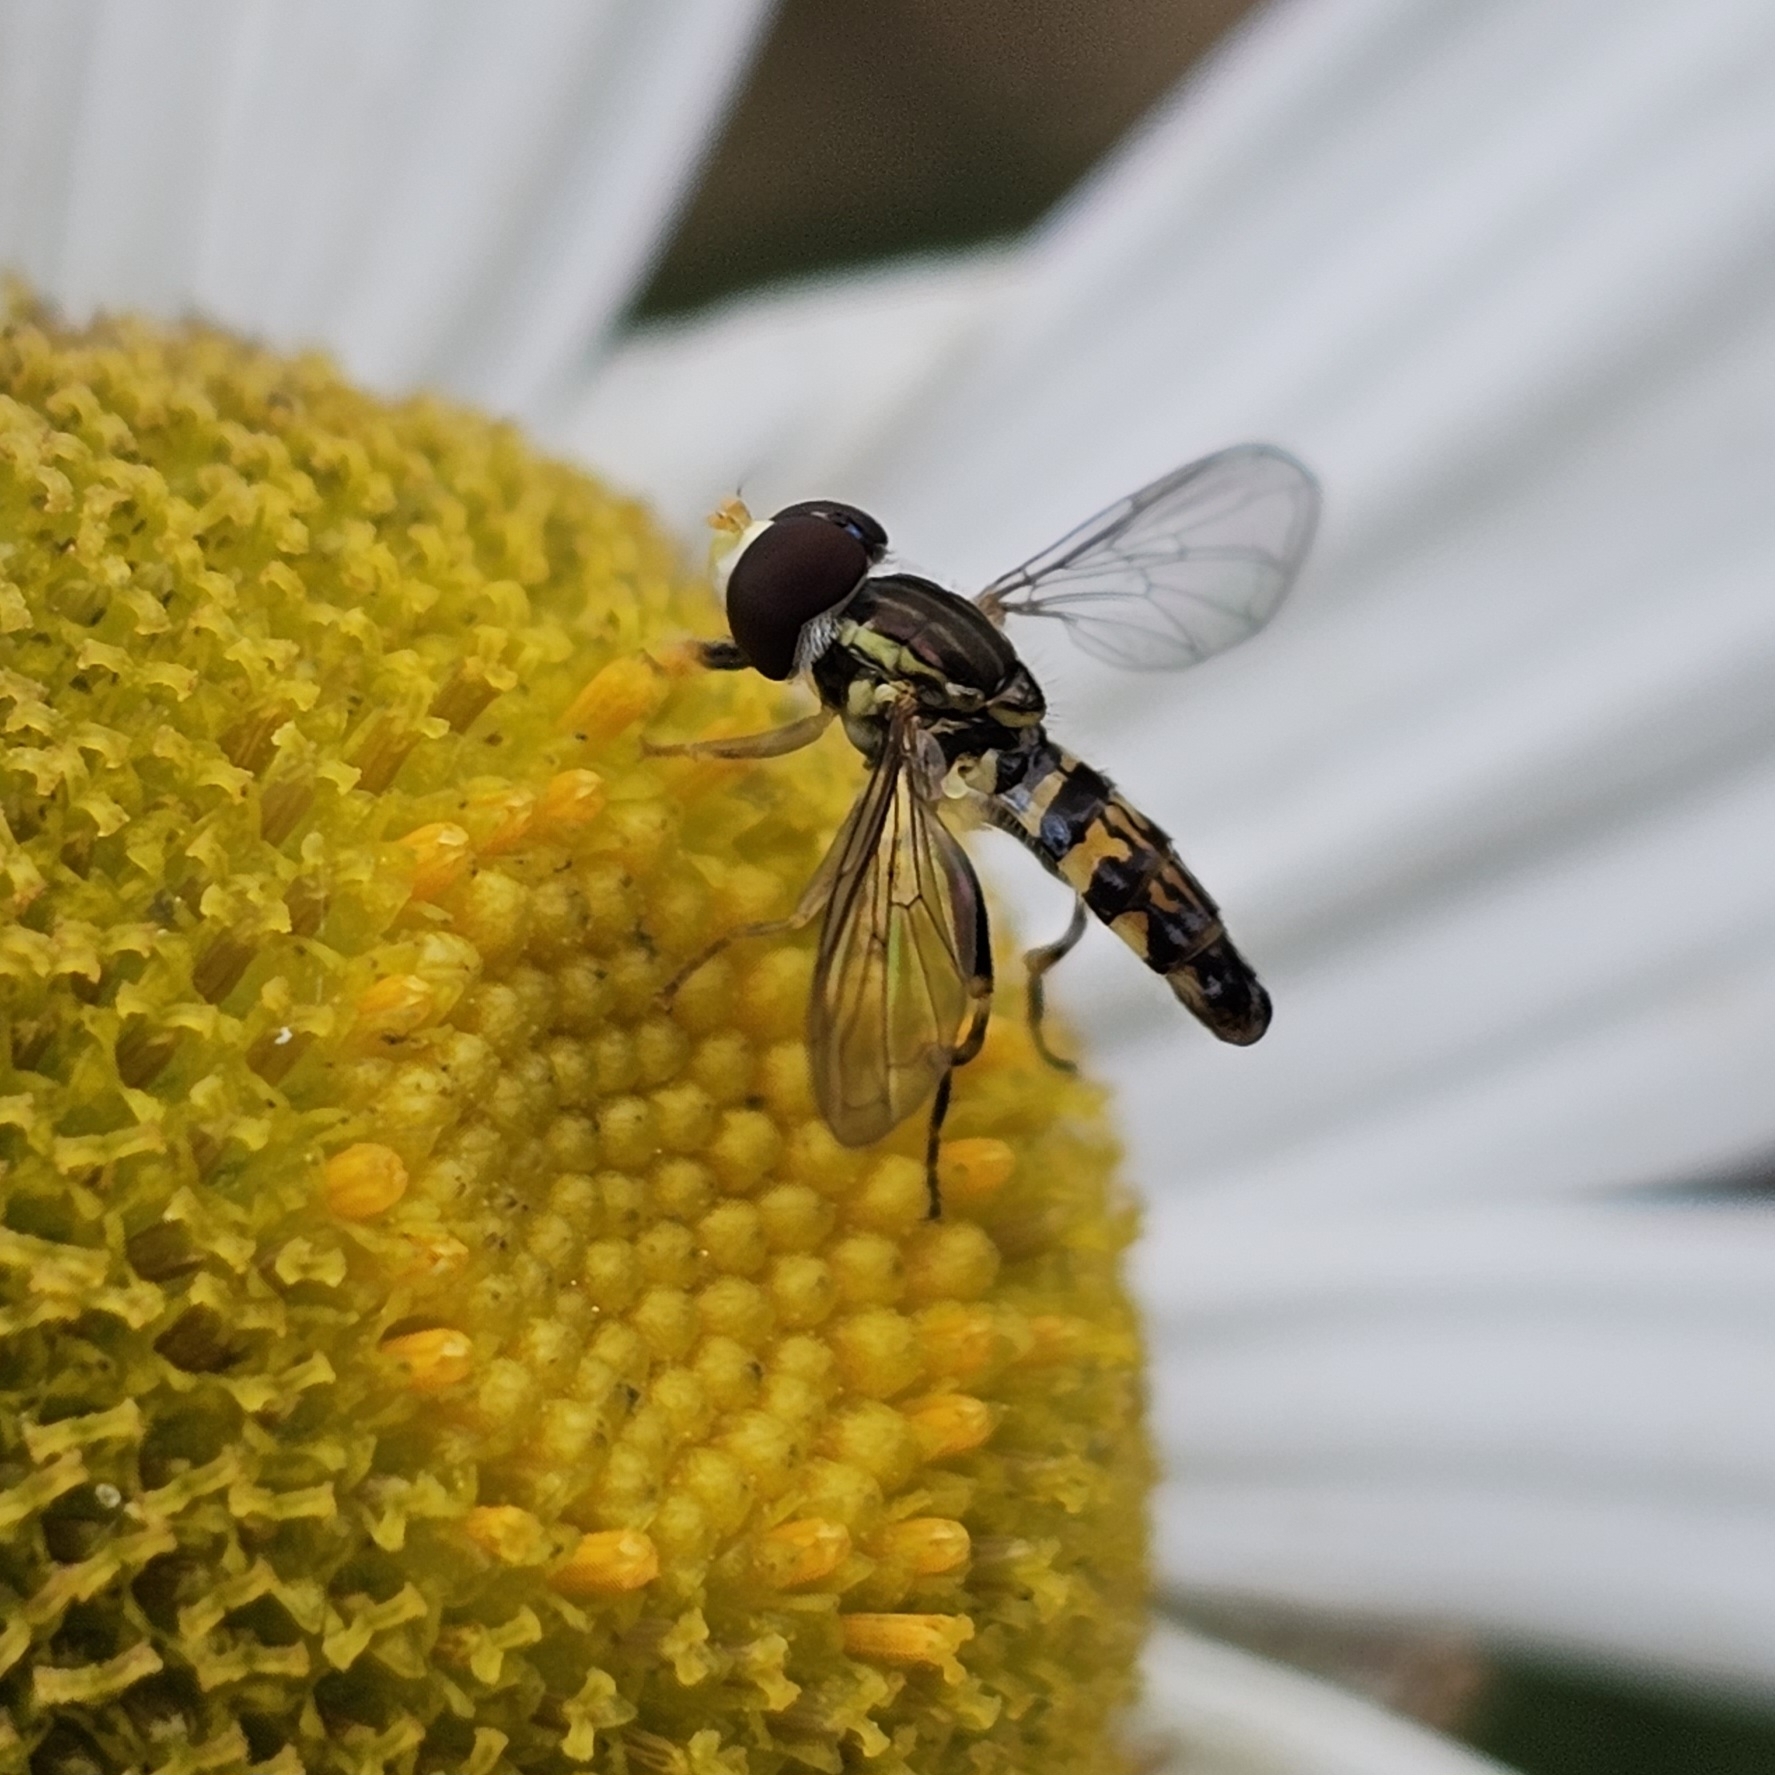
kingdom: Animalia
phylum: Arthropoda
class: Insecta
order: Diptera
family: Syrphidae
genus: Toxomerus
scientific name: Toxomerus geminatus
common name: Eastern calligrapher
